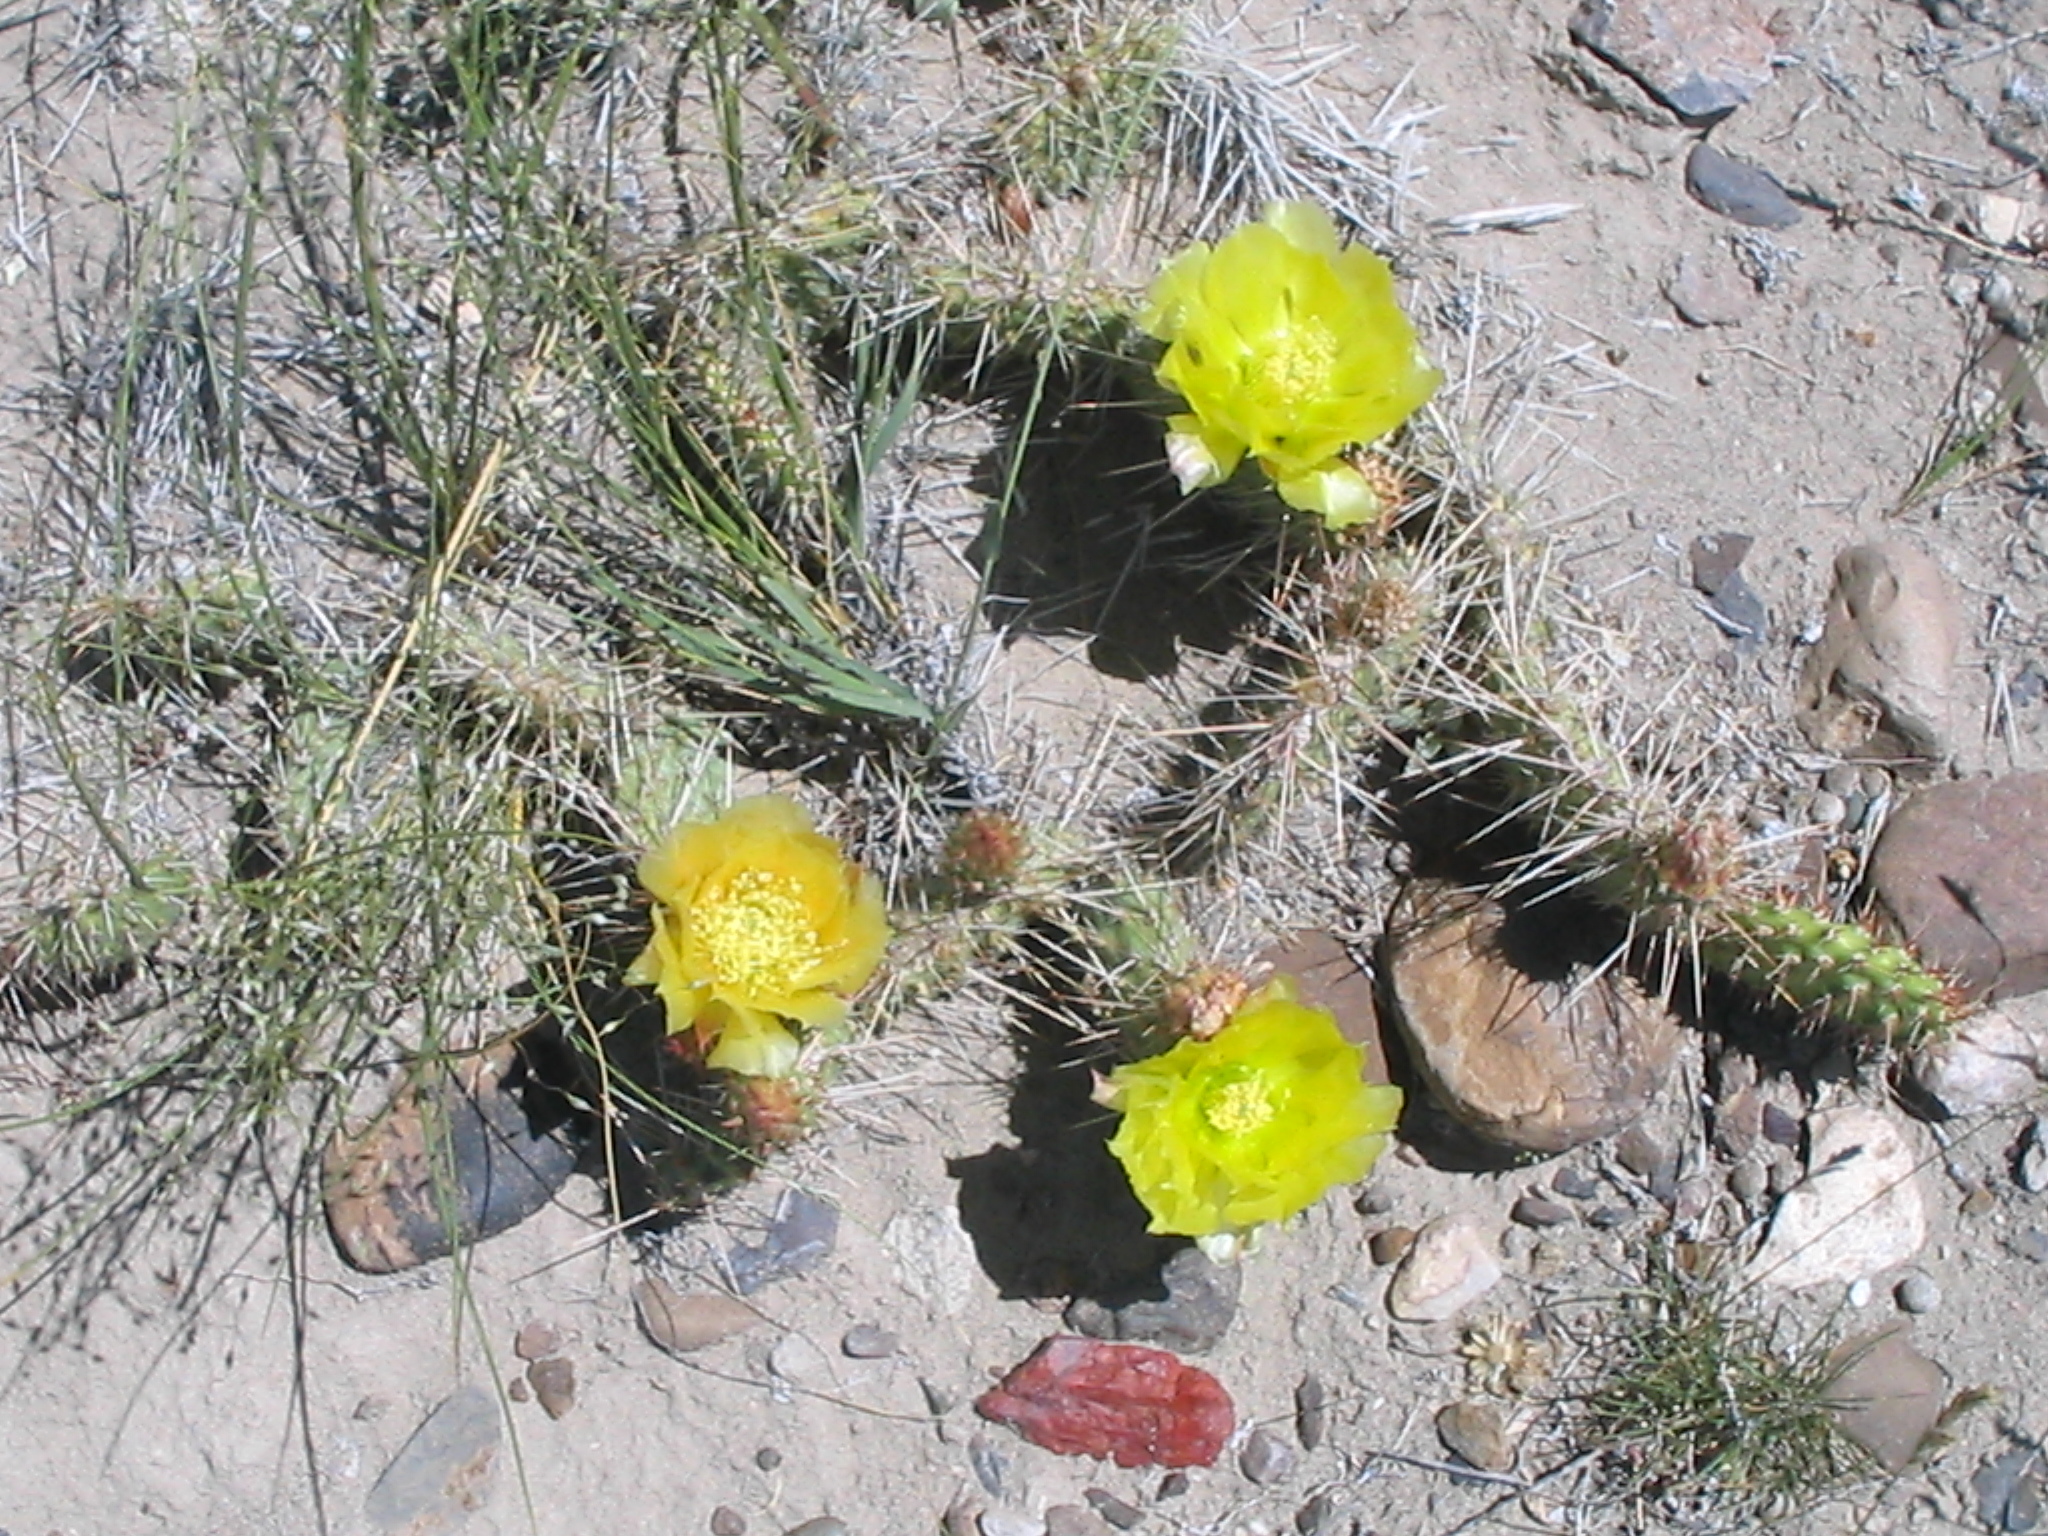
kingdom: Plantae
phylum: Tracheophyta
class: Magnoliopsida
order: Caryophyllales
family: Cactaceae
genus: Opuntia
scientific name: Opuntia polyacantha
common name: Plains prickly-pear
